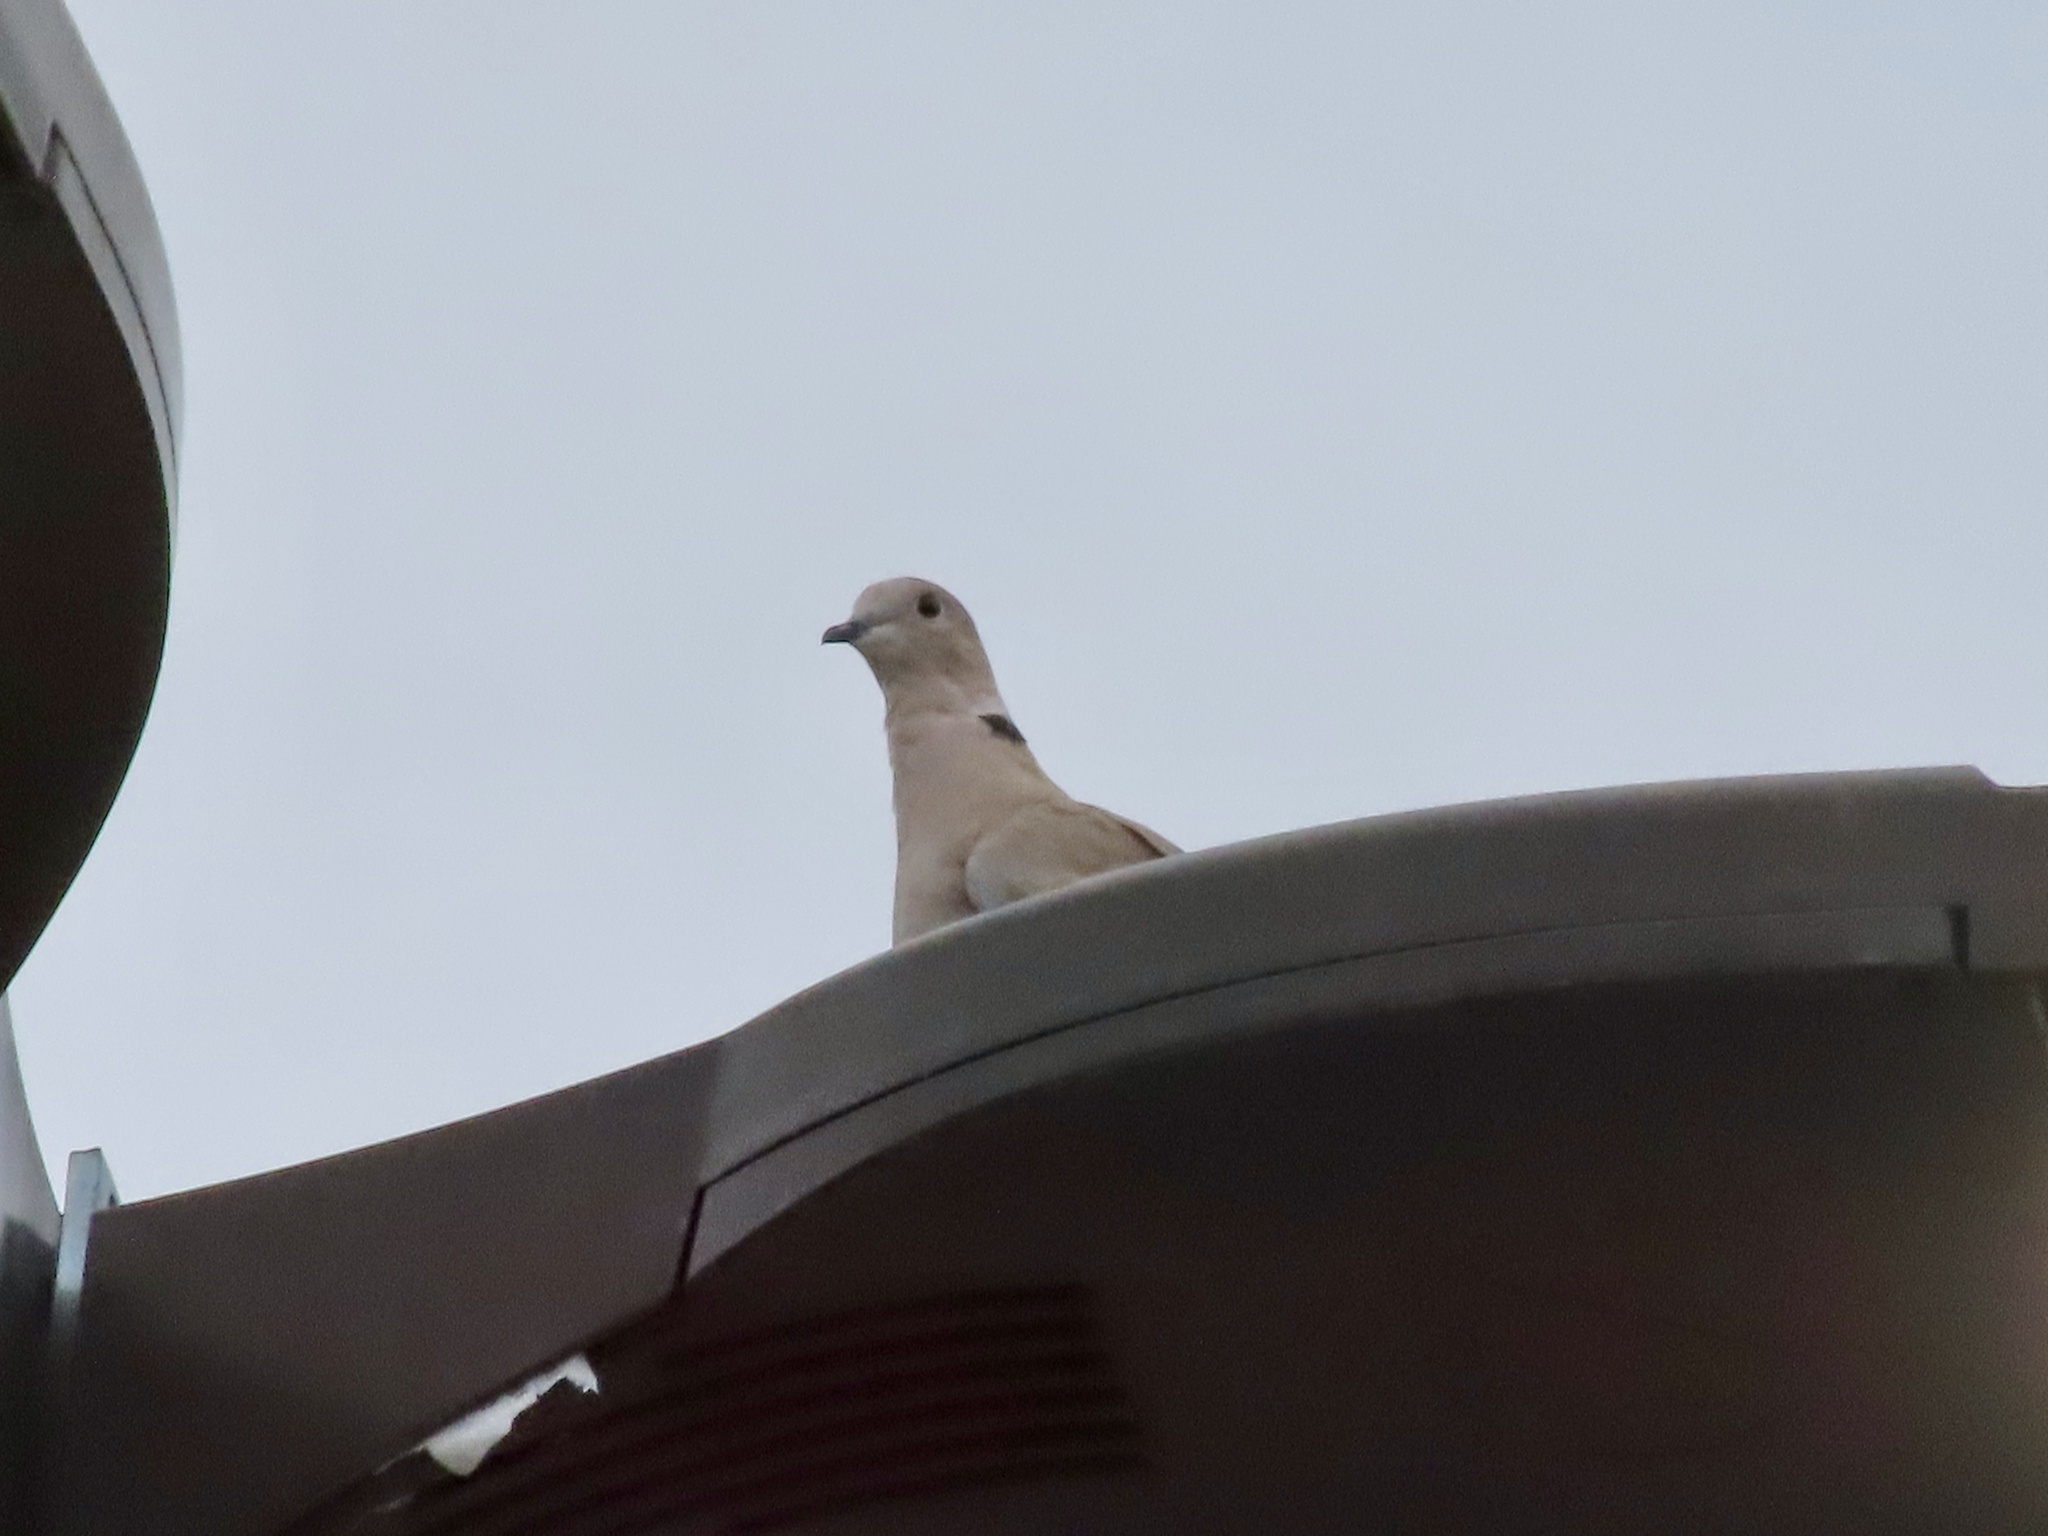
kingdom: Animalia
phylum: Chordata
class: Aves
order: Columbiformes
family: Columbidae
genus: Streptopelia
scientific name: Streptopelia decaocto
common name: Eurasian collared dove
